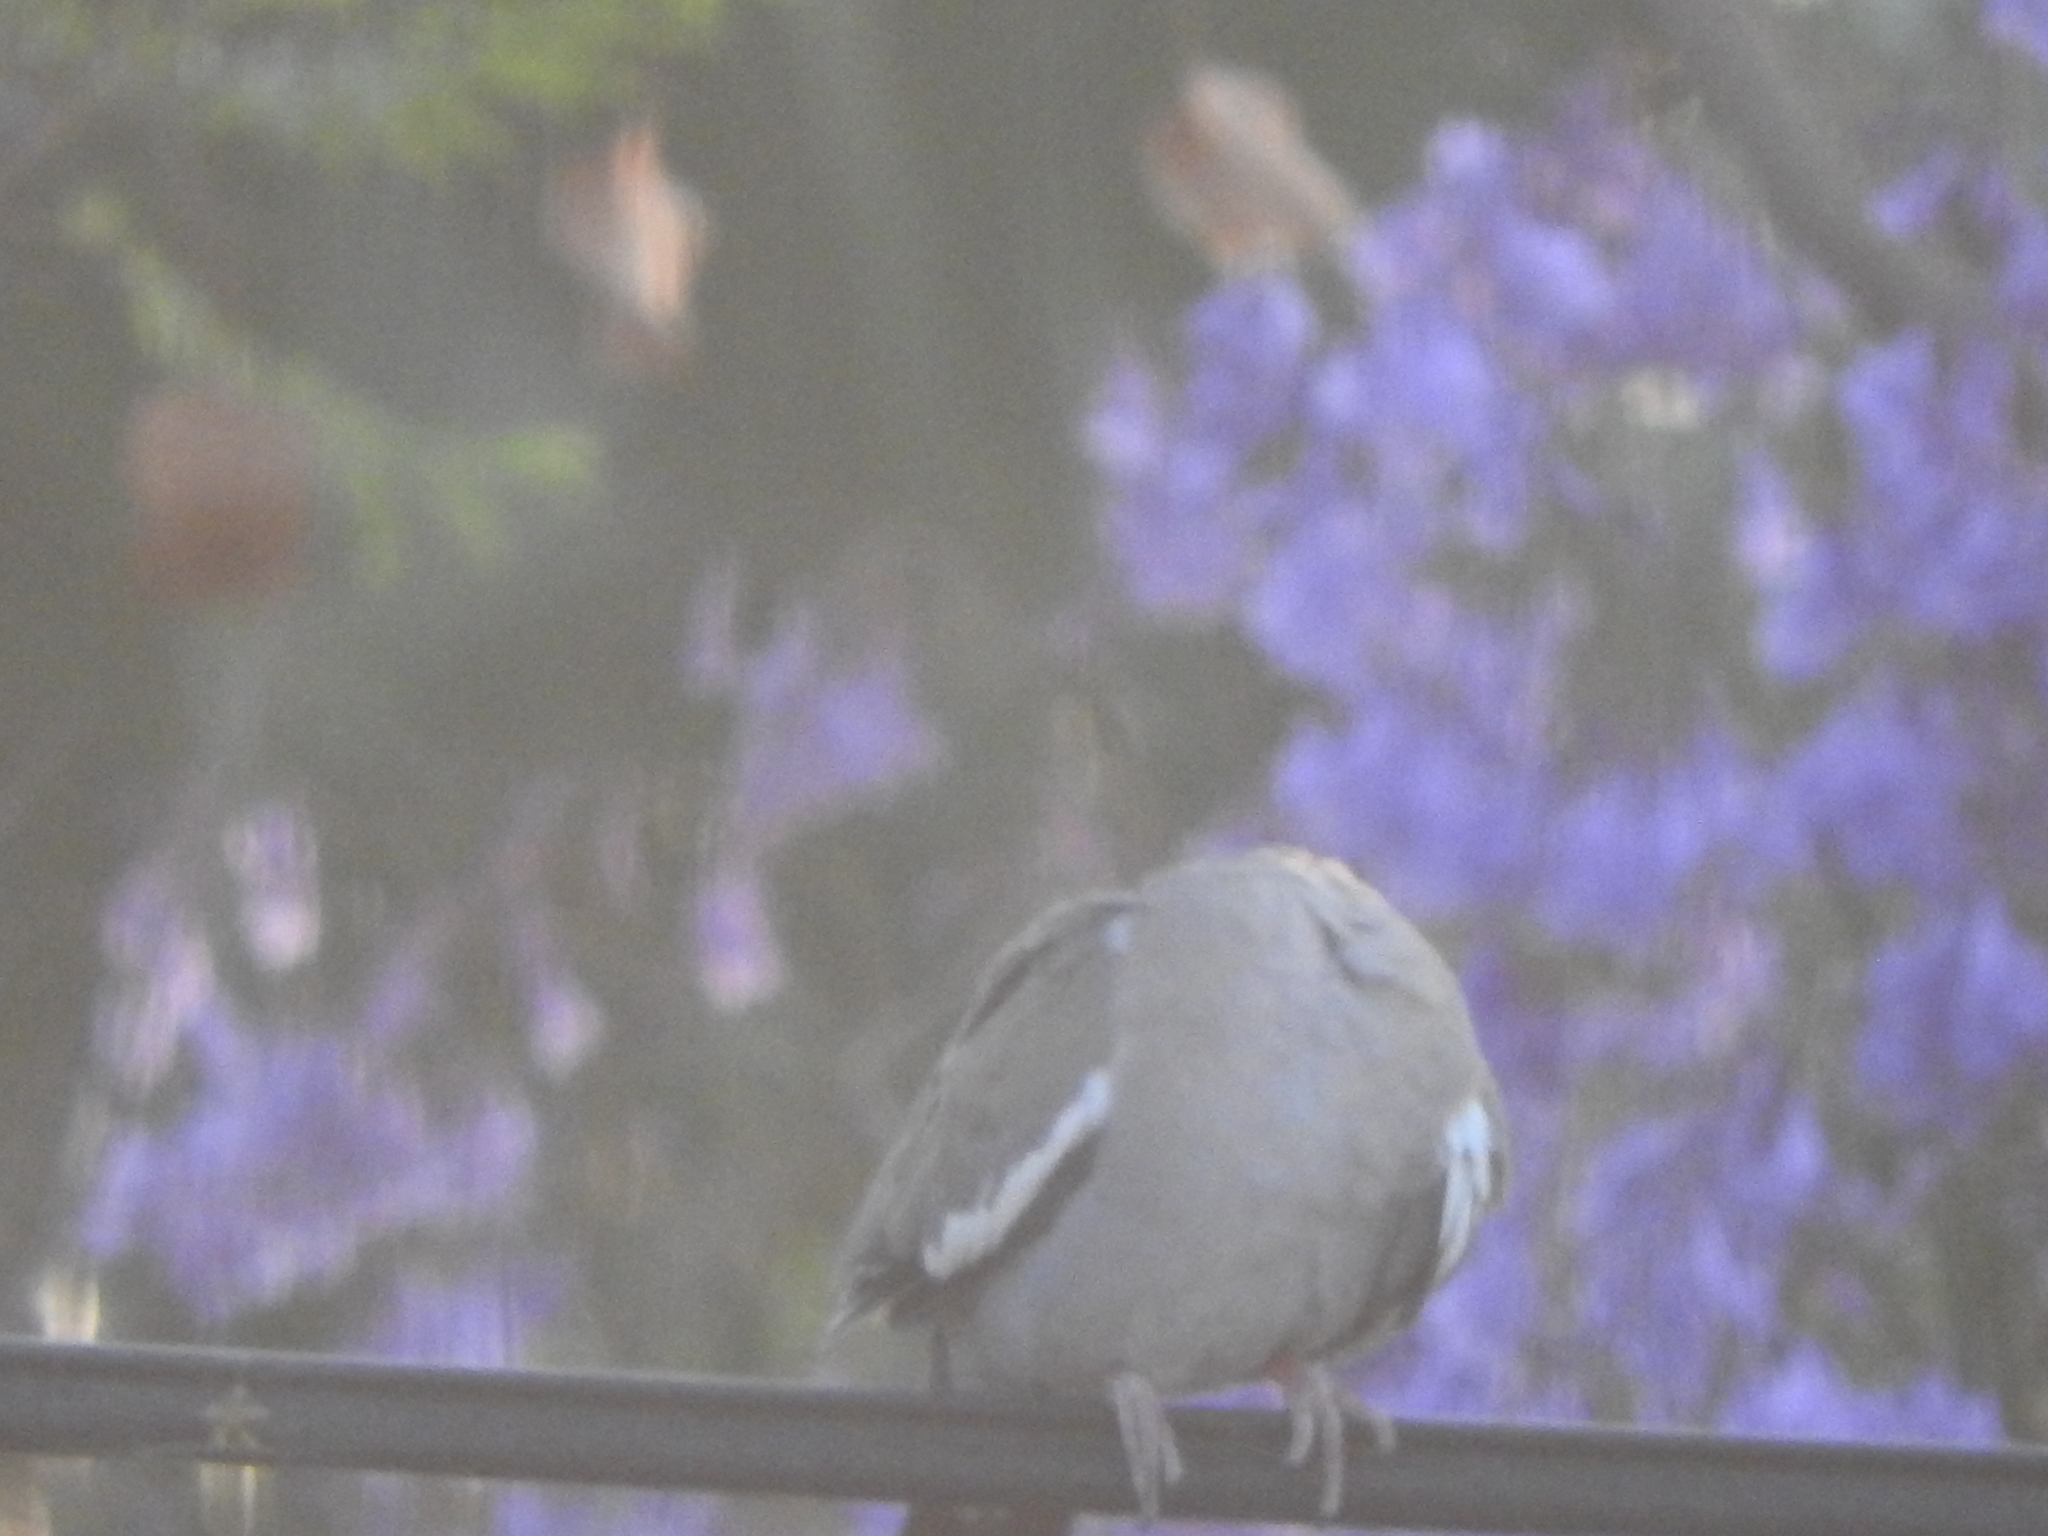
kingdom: Animalia
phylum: Chordata
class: Aves
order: Columbiformes
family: Columbidae
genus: Zenaida
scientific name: Zenaida asiatica
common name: White-winged dove
